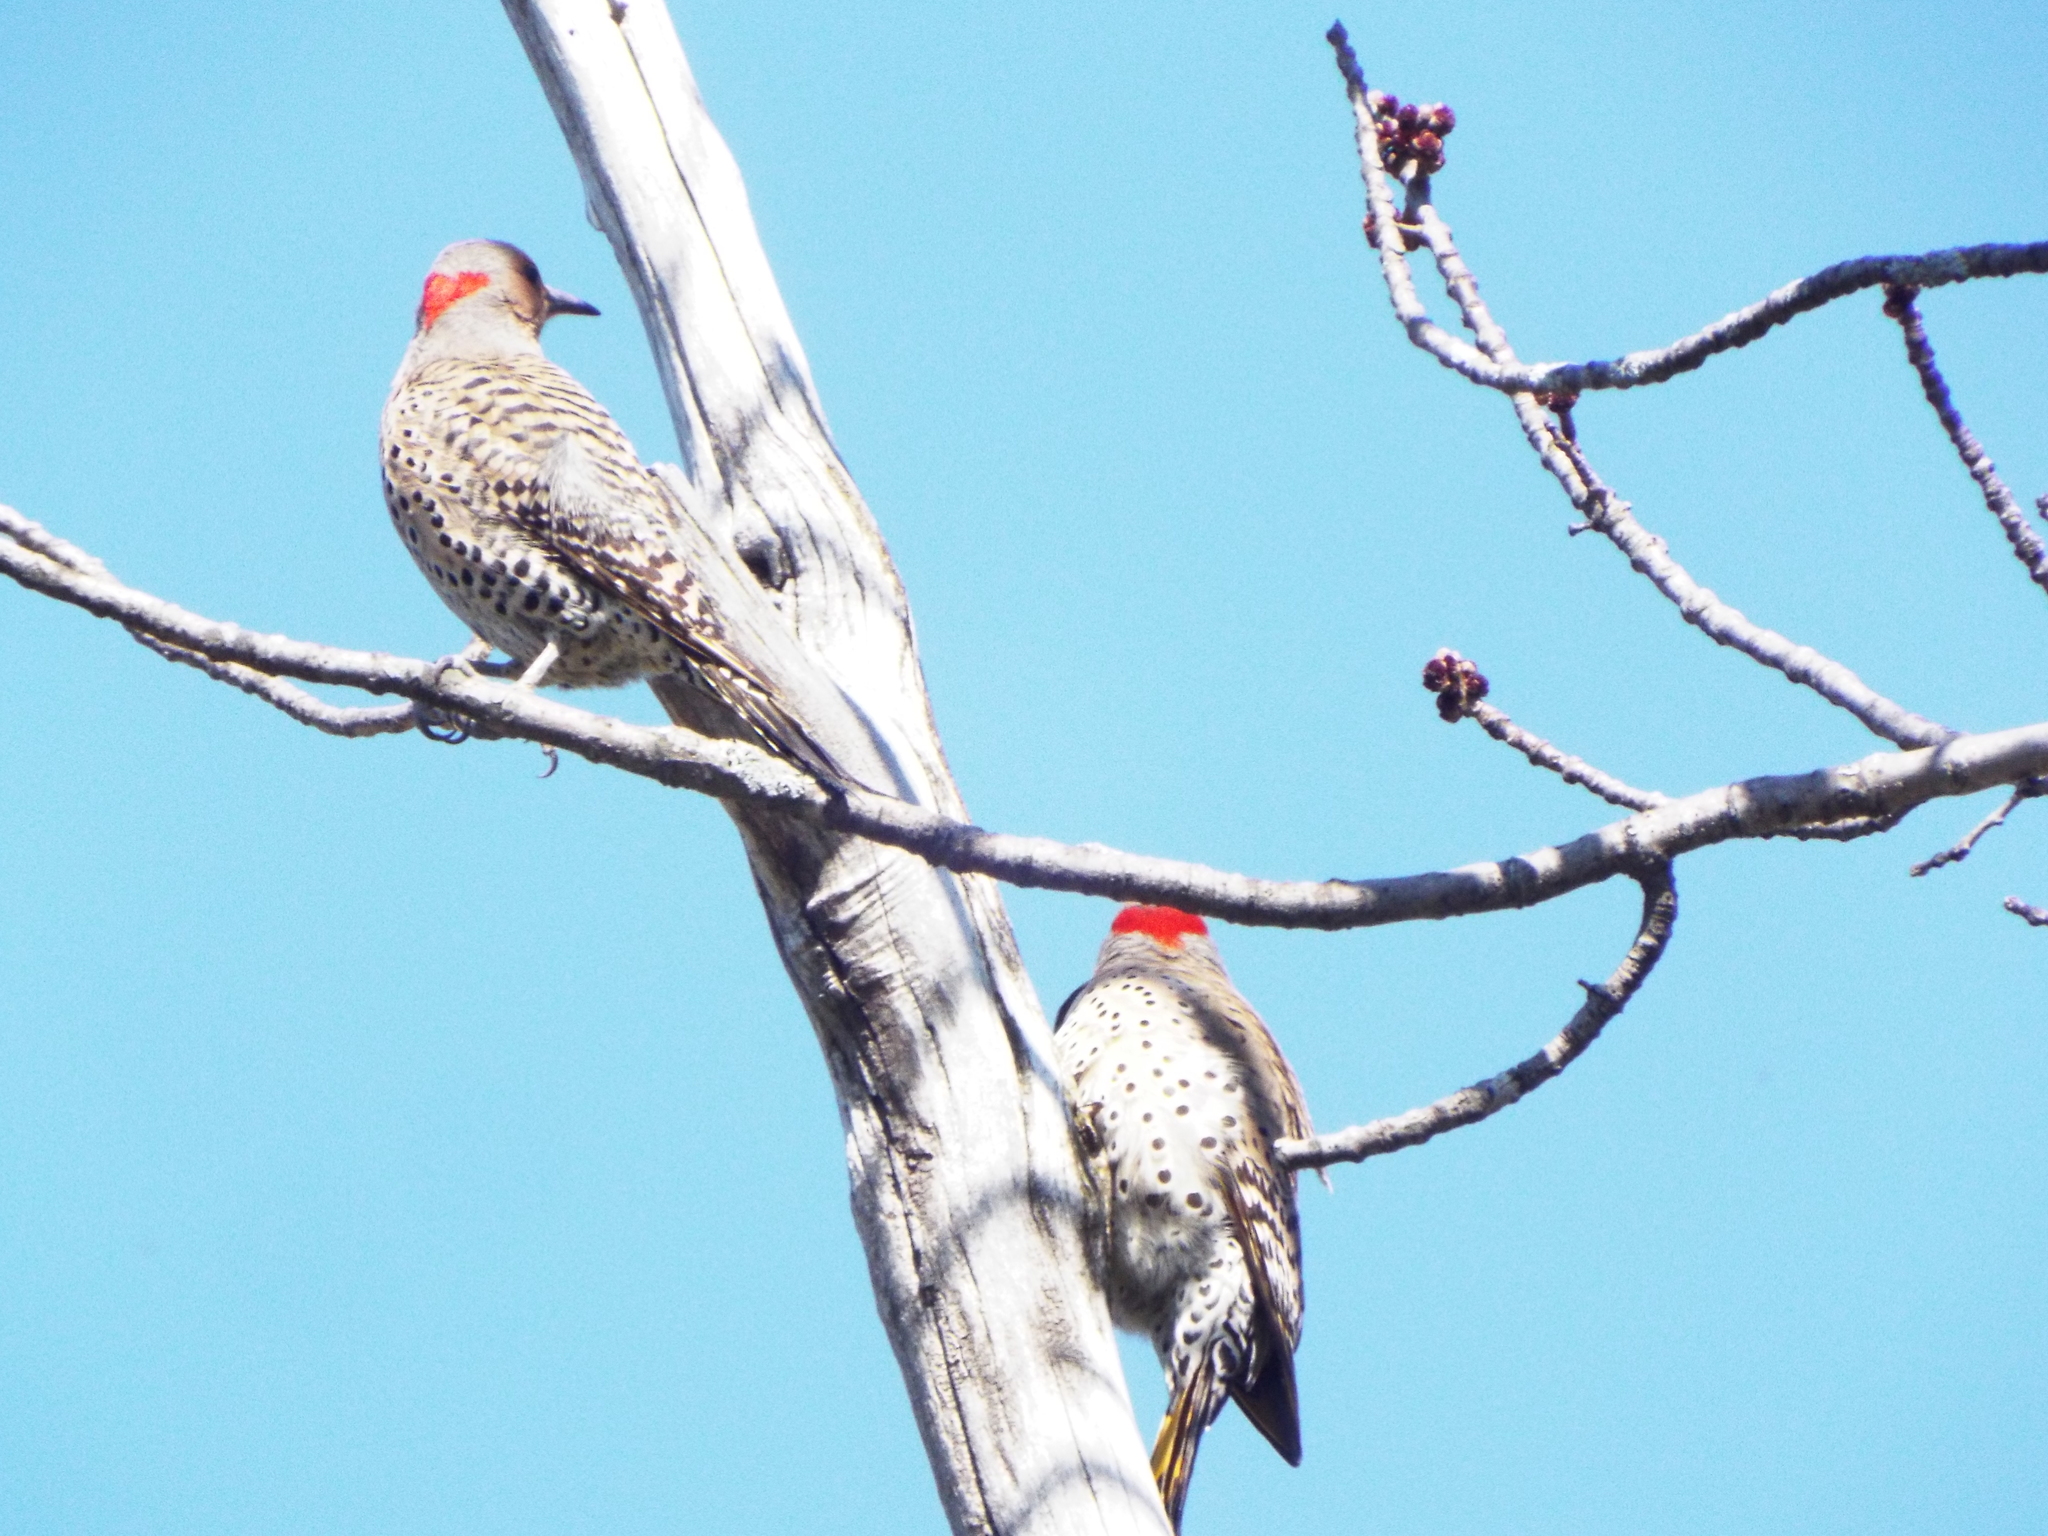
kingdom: Animalia
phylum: Chordata
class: Aves
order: Piciformes
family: Picidae
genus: Colaptes
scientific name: Colaptes auratus
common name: Northern flicker
